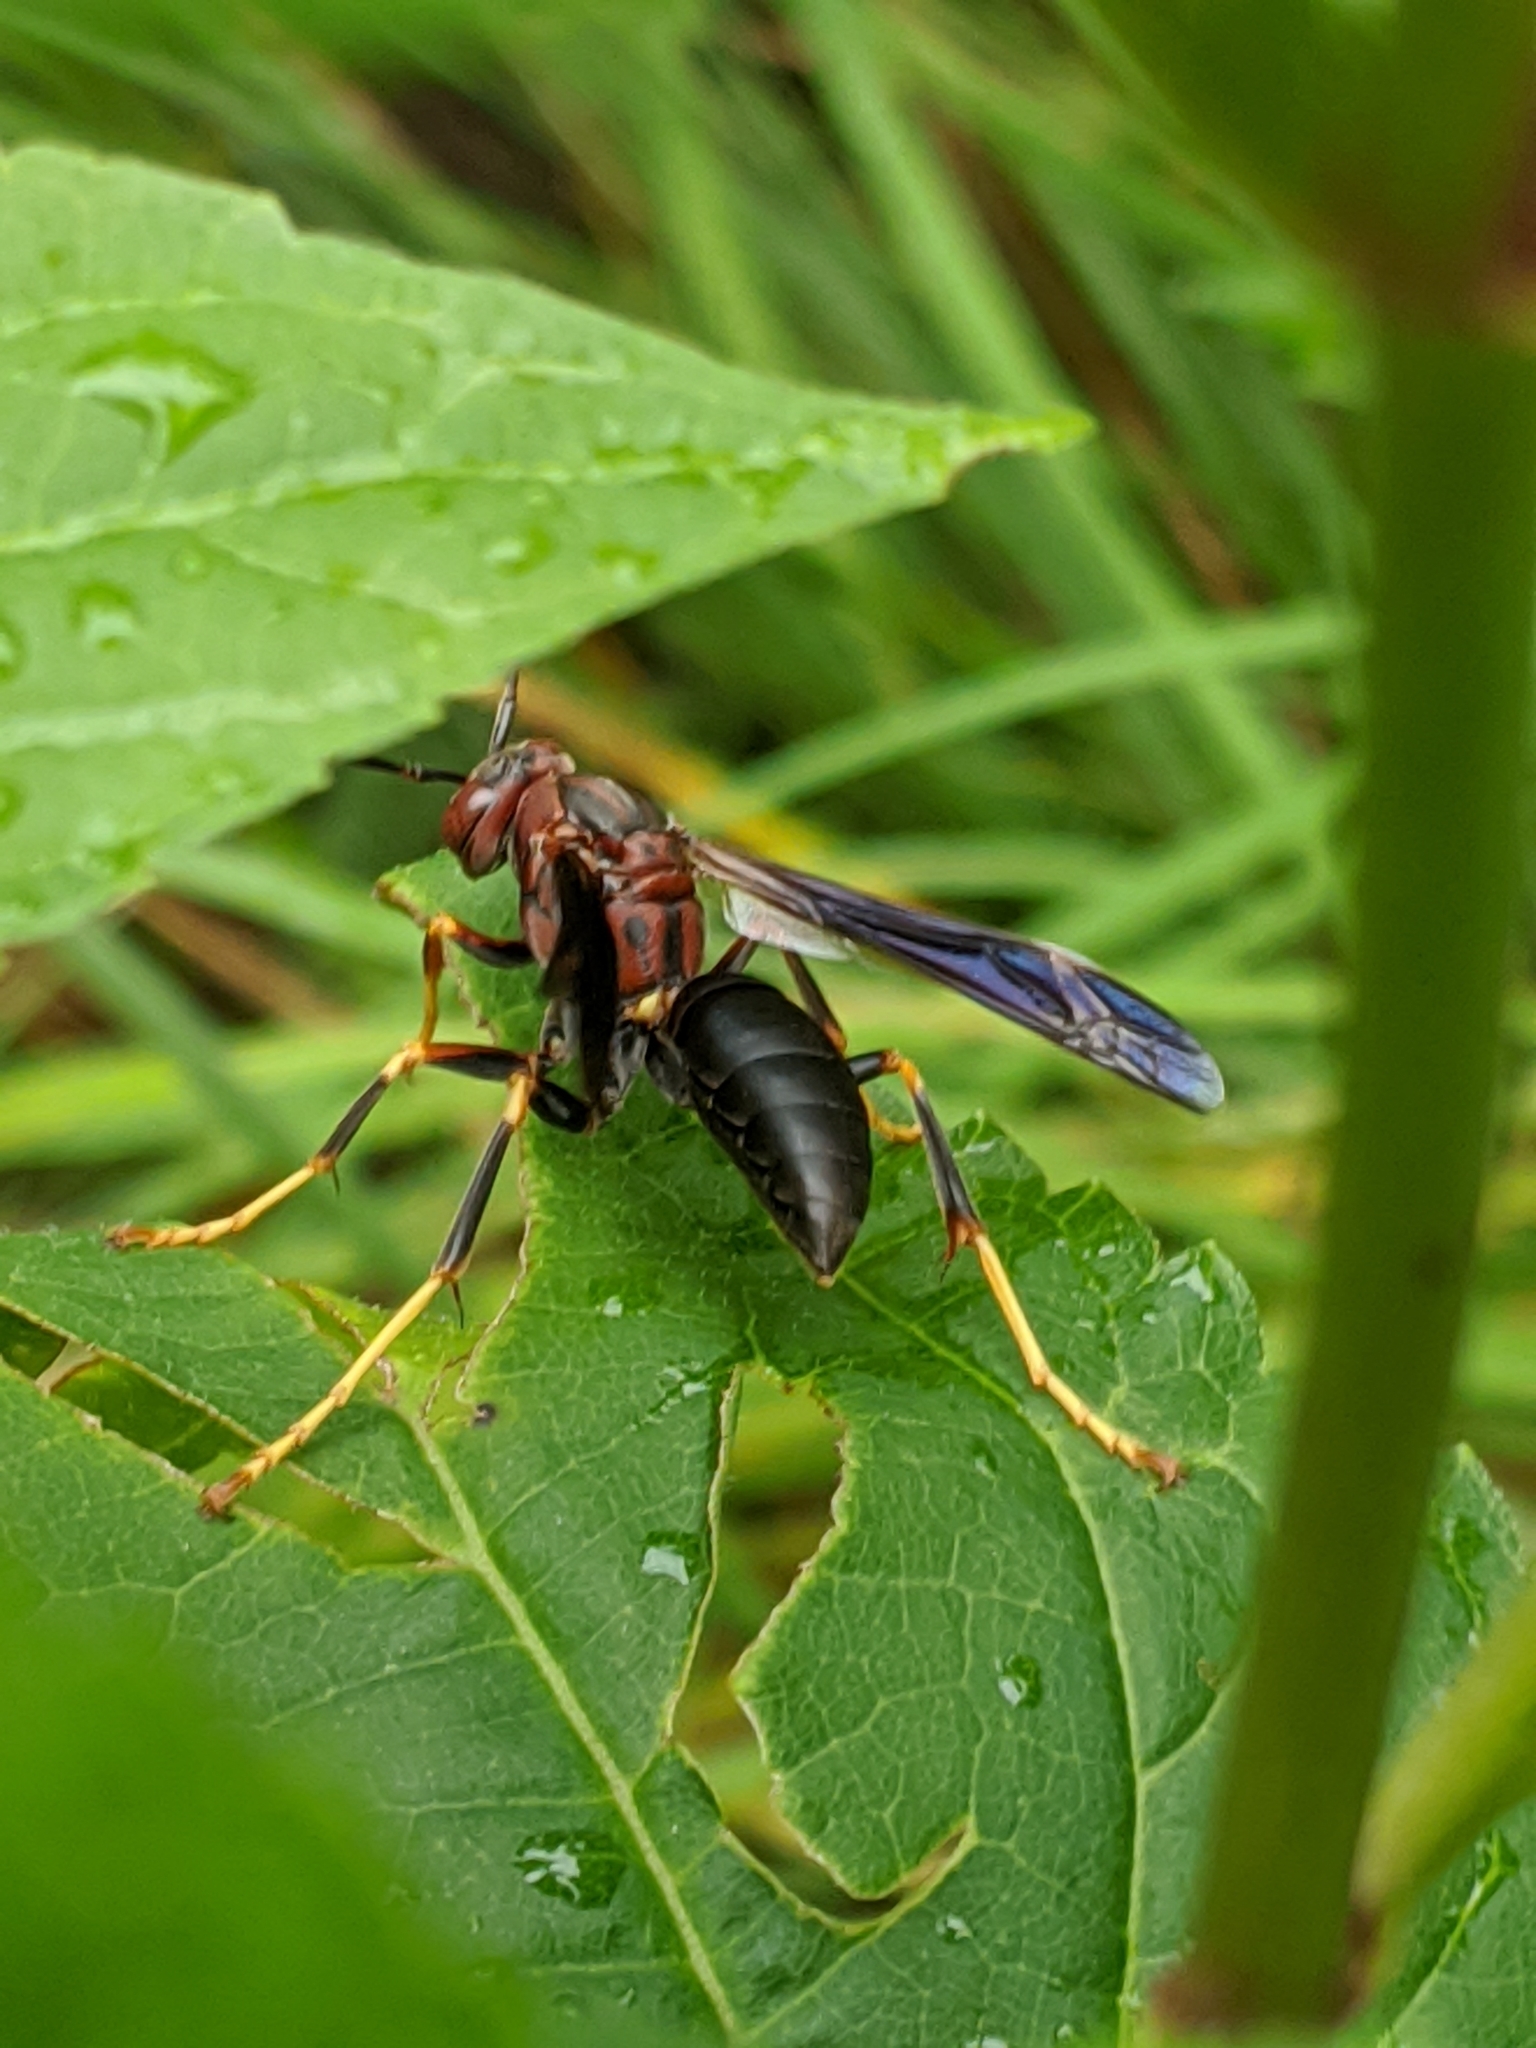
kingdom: Animalia
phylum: Arthropoda
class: Insecta
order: Hymenoptera
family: Eumenidae
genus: Polistes
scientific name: Polistes metricus
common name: Metric paper wasp
